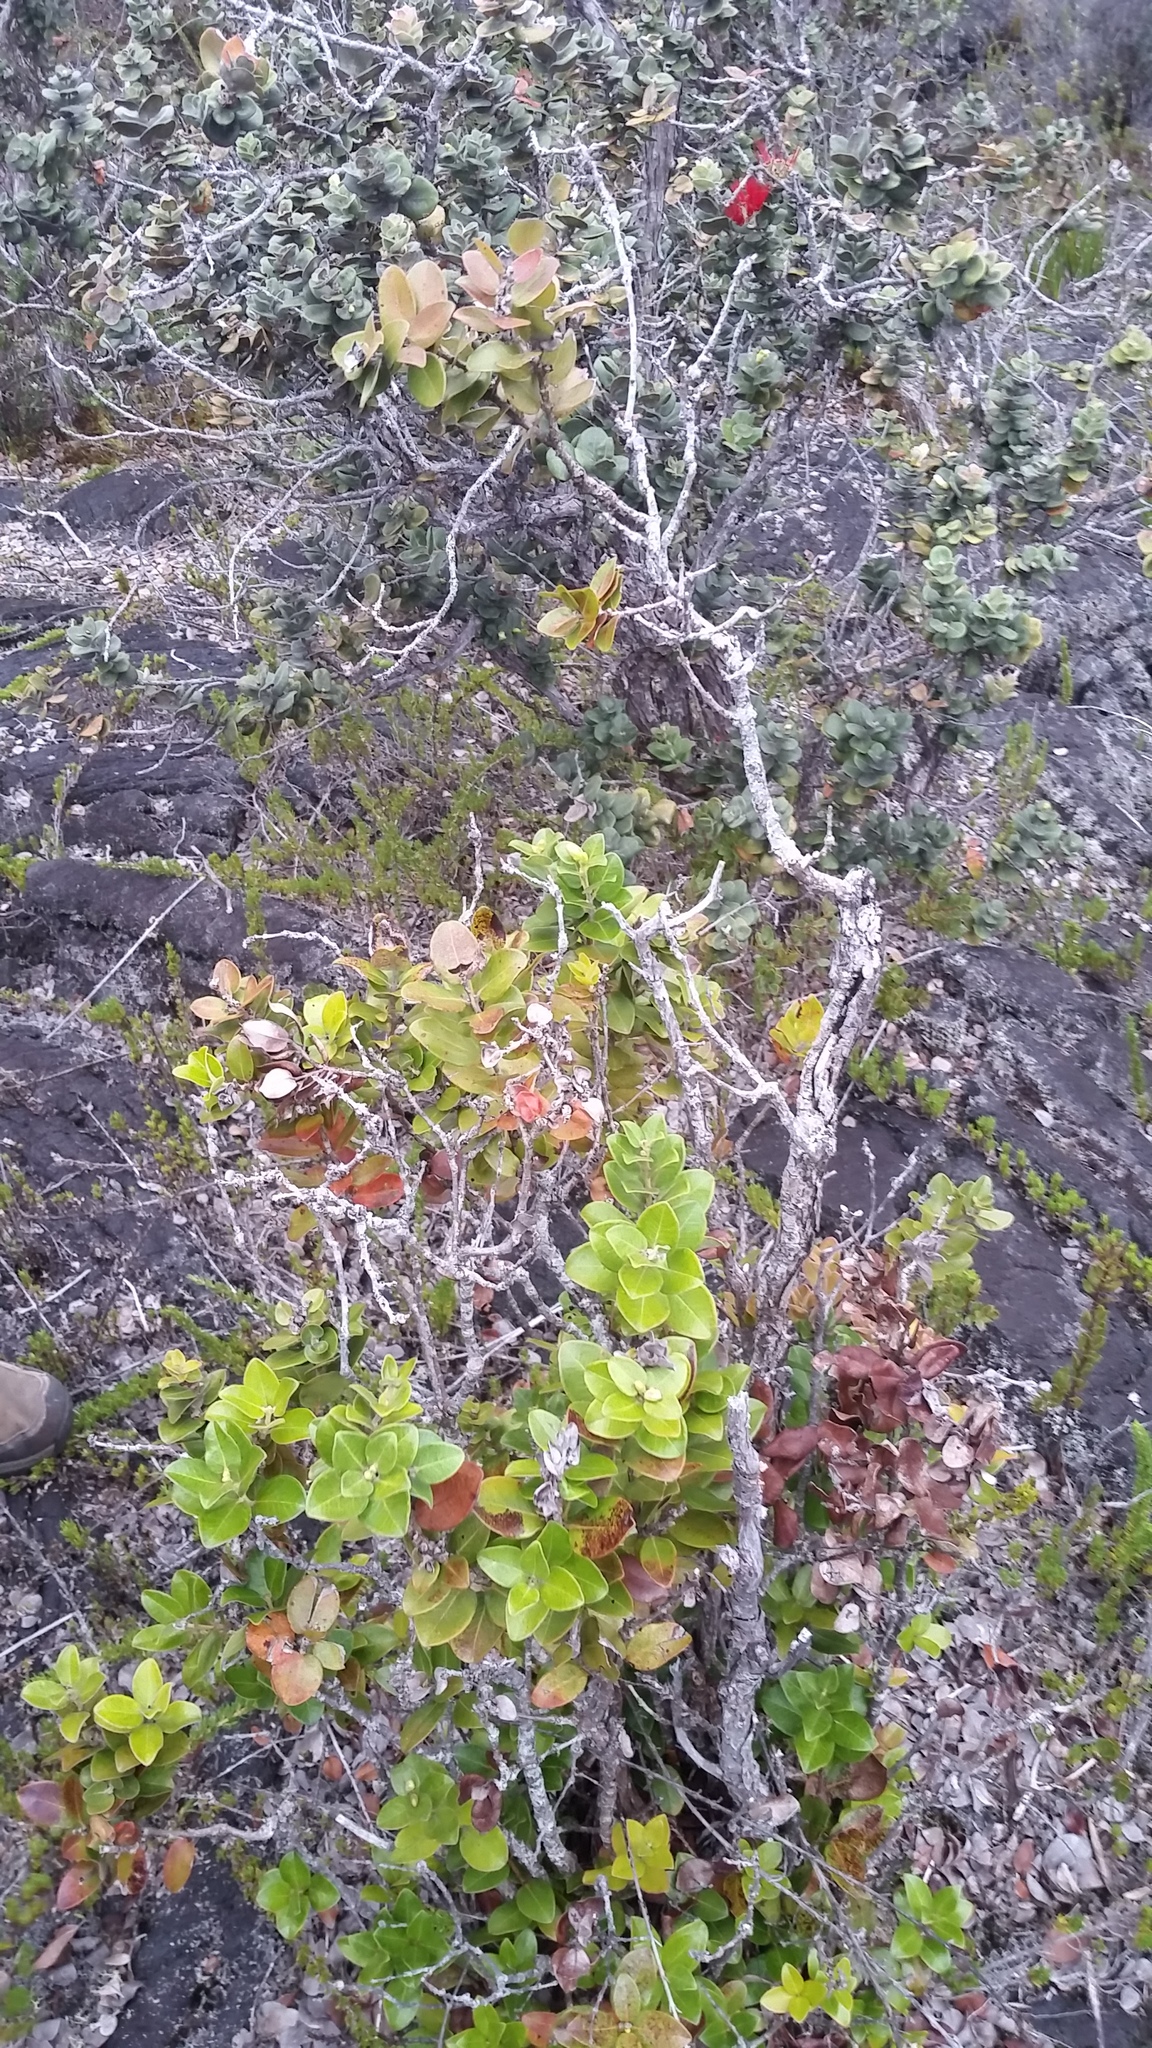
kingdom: Plantae
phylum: Tracheophyta
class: Magnoliopsida
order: Myrtales
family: Myrtaceae
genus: Metrosideros
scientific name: Metrosideros polymorpha
